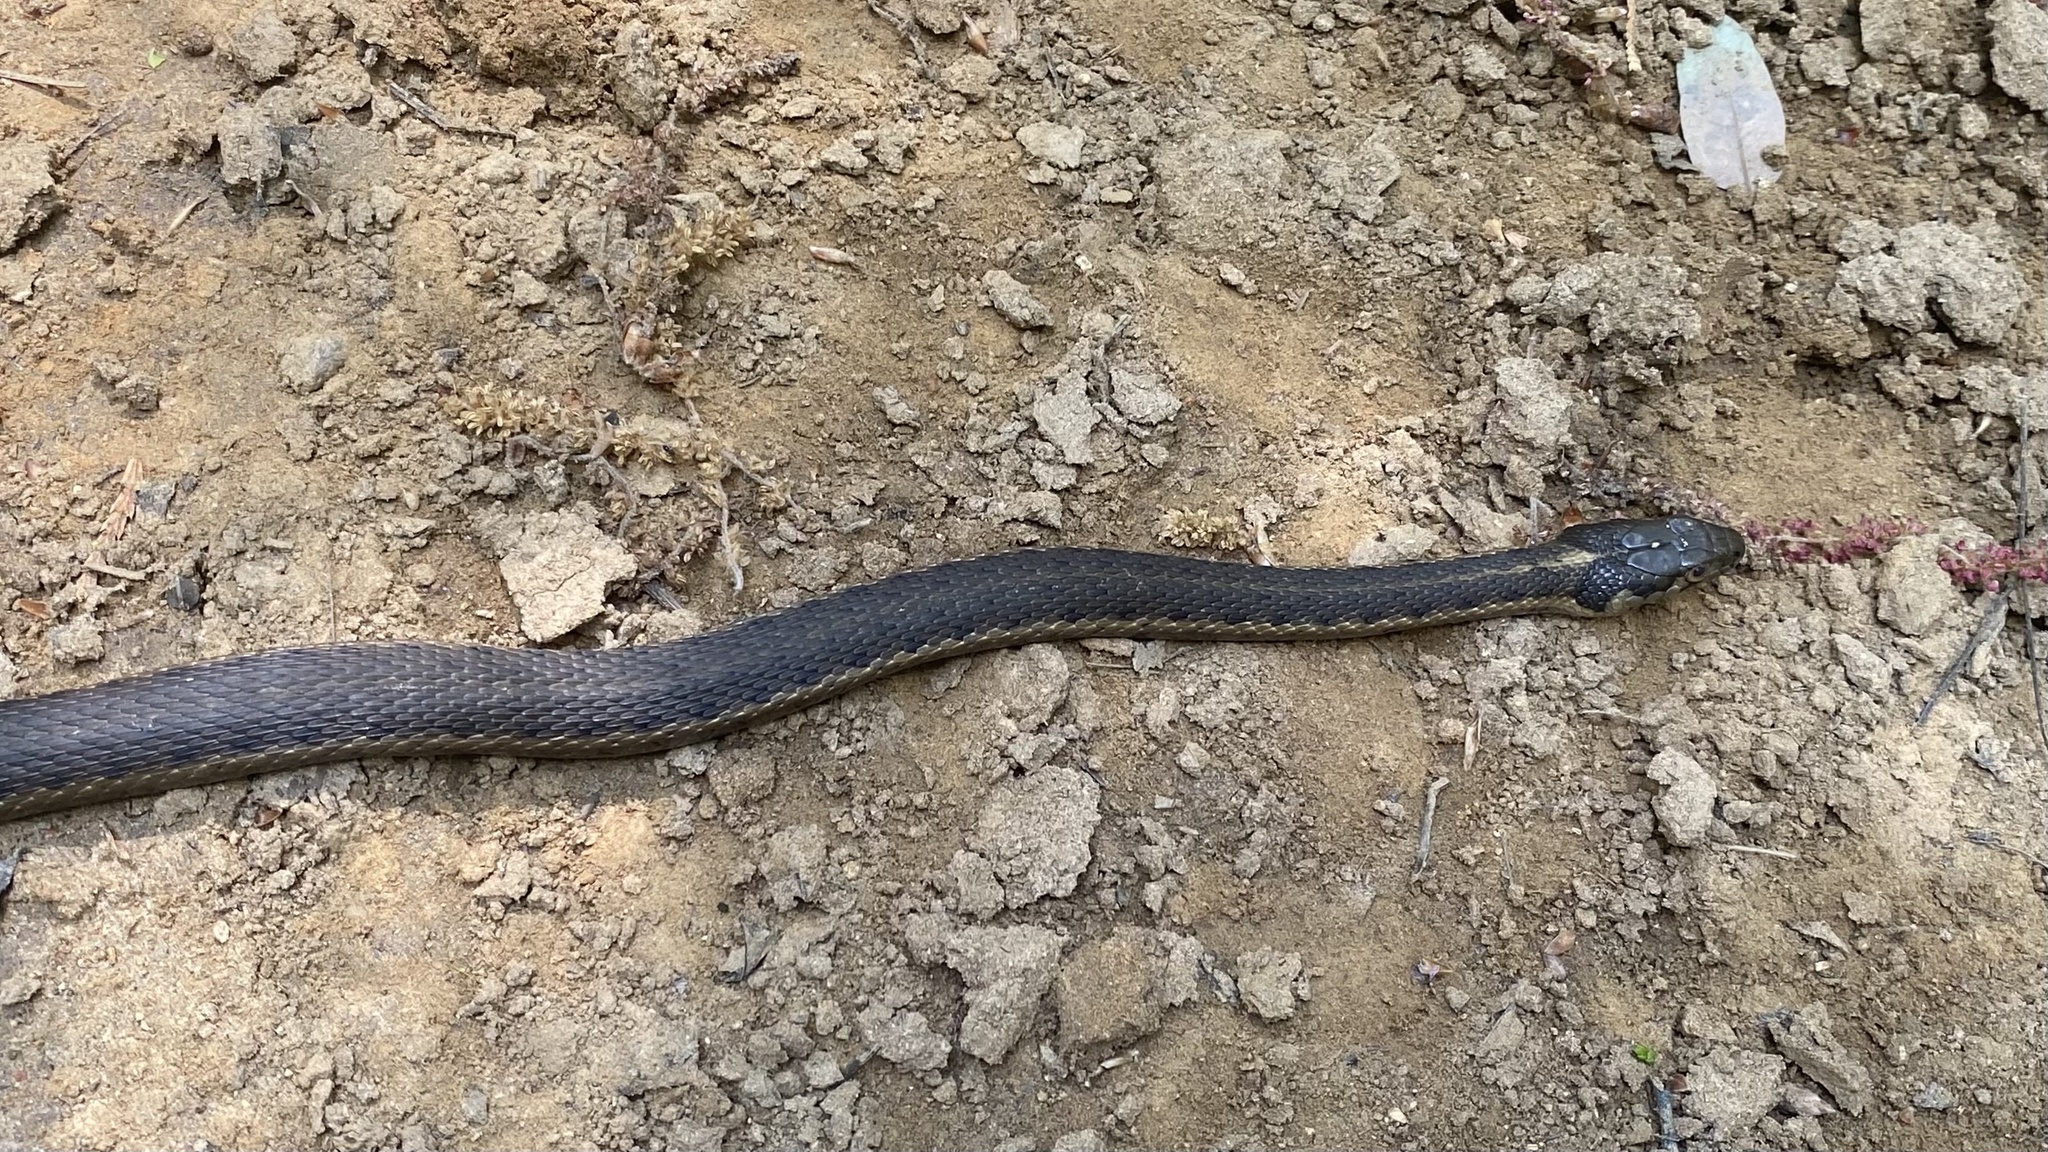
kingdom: Animalia
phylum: Chordata
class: Squamata
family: Colubridae
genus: Thamnophis
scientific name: Thamnophis couchii
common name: Western aquatic garter snake
